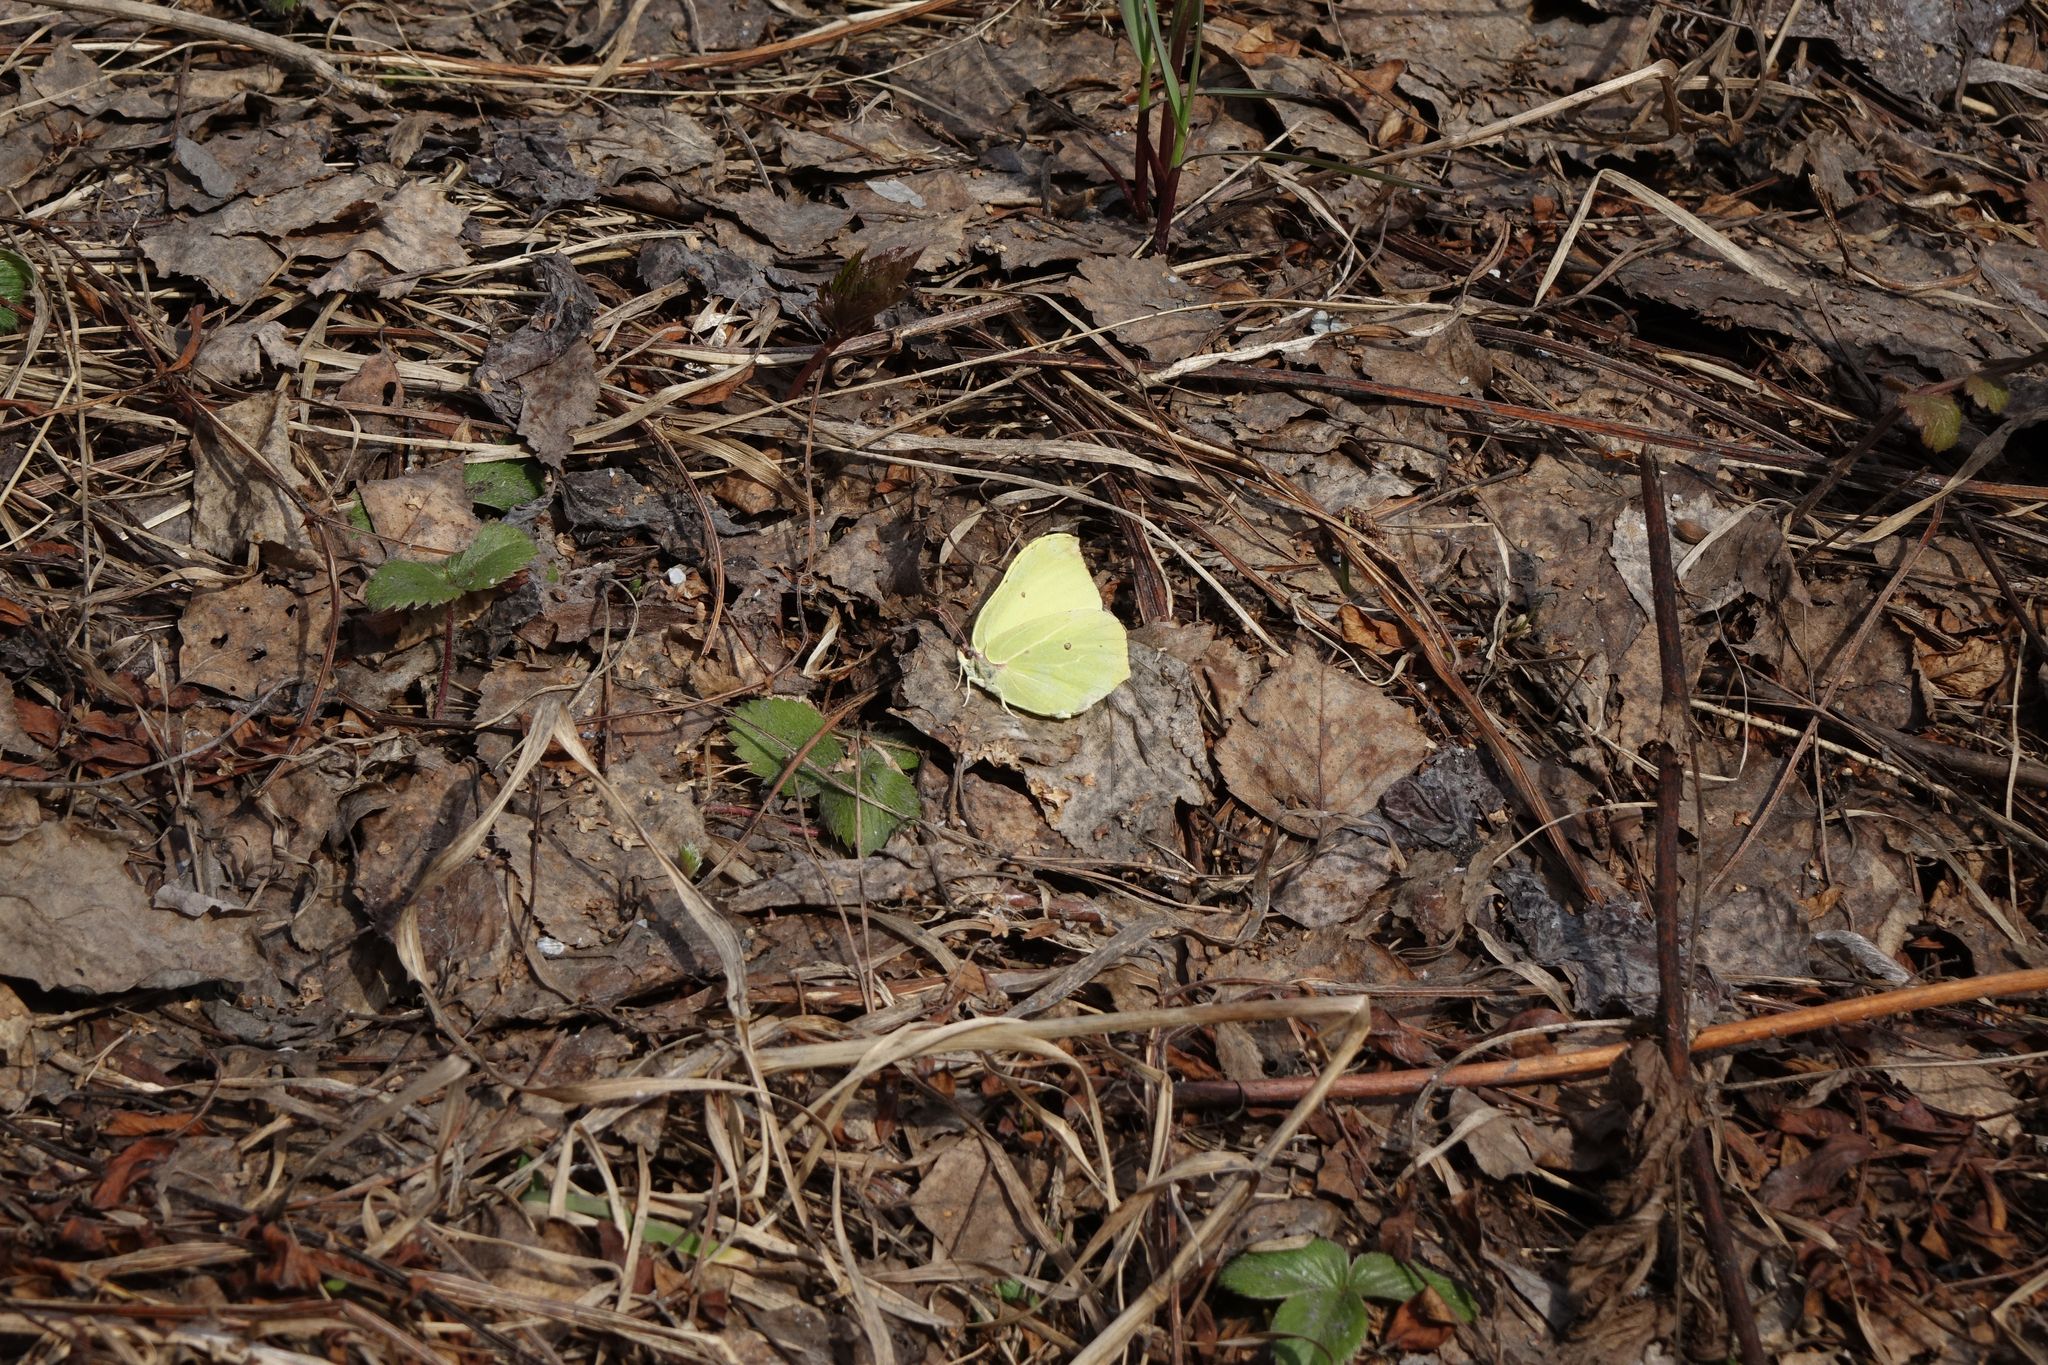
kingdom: Animalia
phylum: Arthropoda
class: Insecta
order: Lepidoptera
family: Pieridae
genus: Gonepteryx
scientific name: Gonepteryx rhamni
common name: Brimstone
